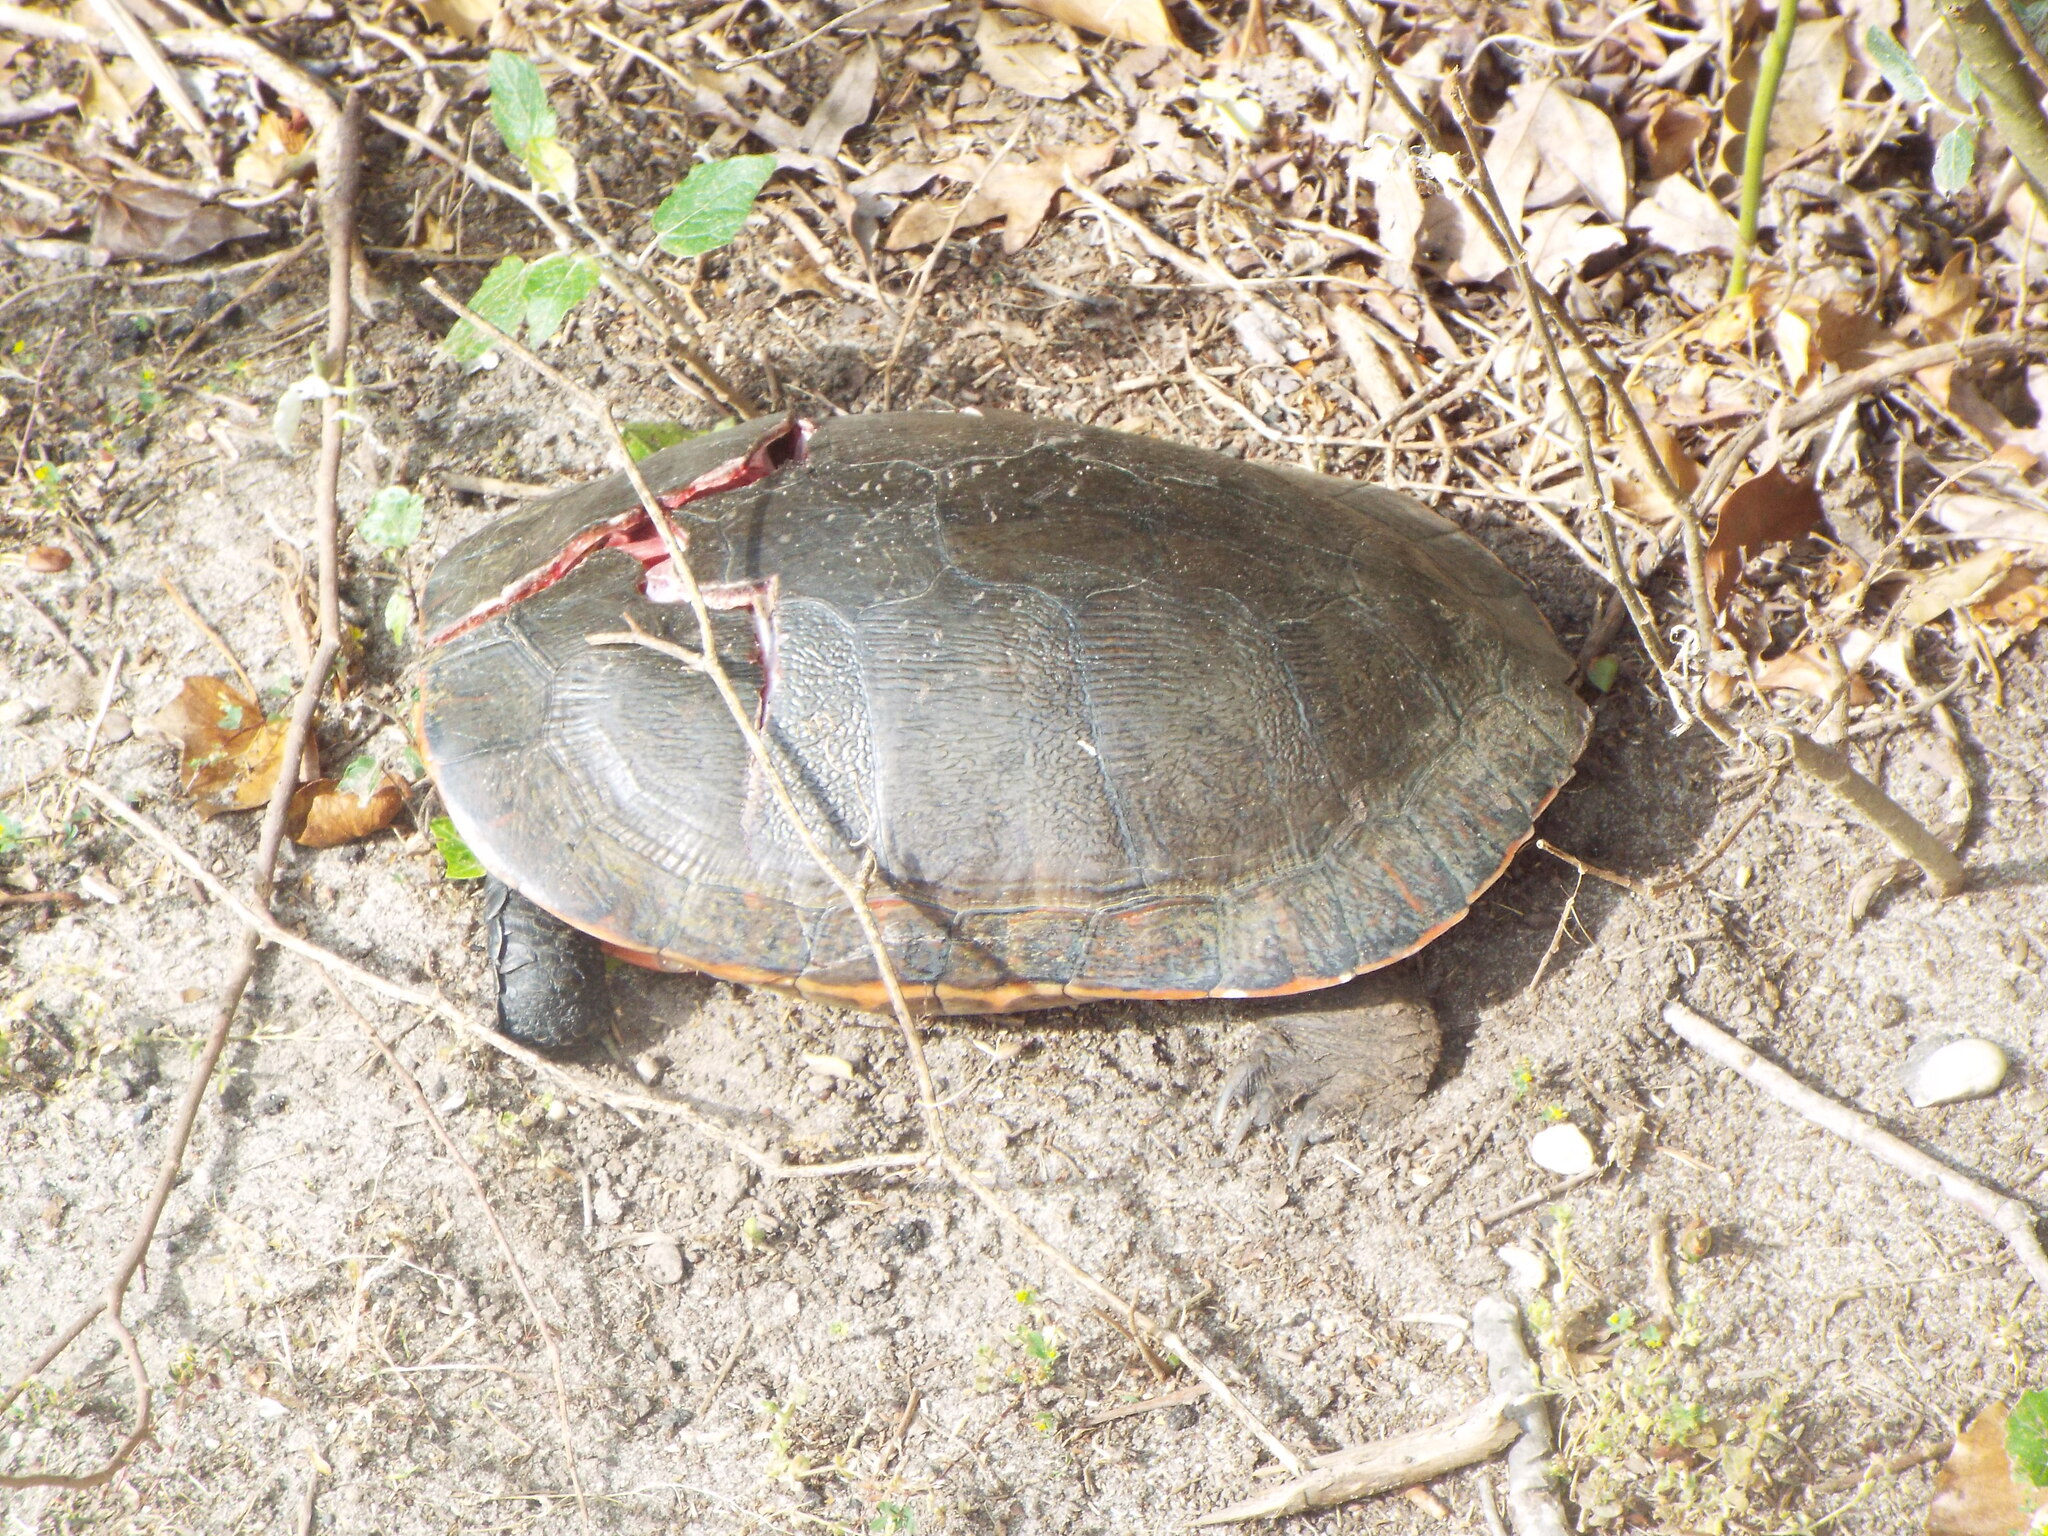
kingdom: Animalia
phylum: Chordata
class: Testudines
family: Emydidae
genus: Pseudemys
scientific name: Pseudemys rubriventris
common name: American red-bellied turtle
